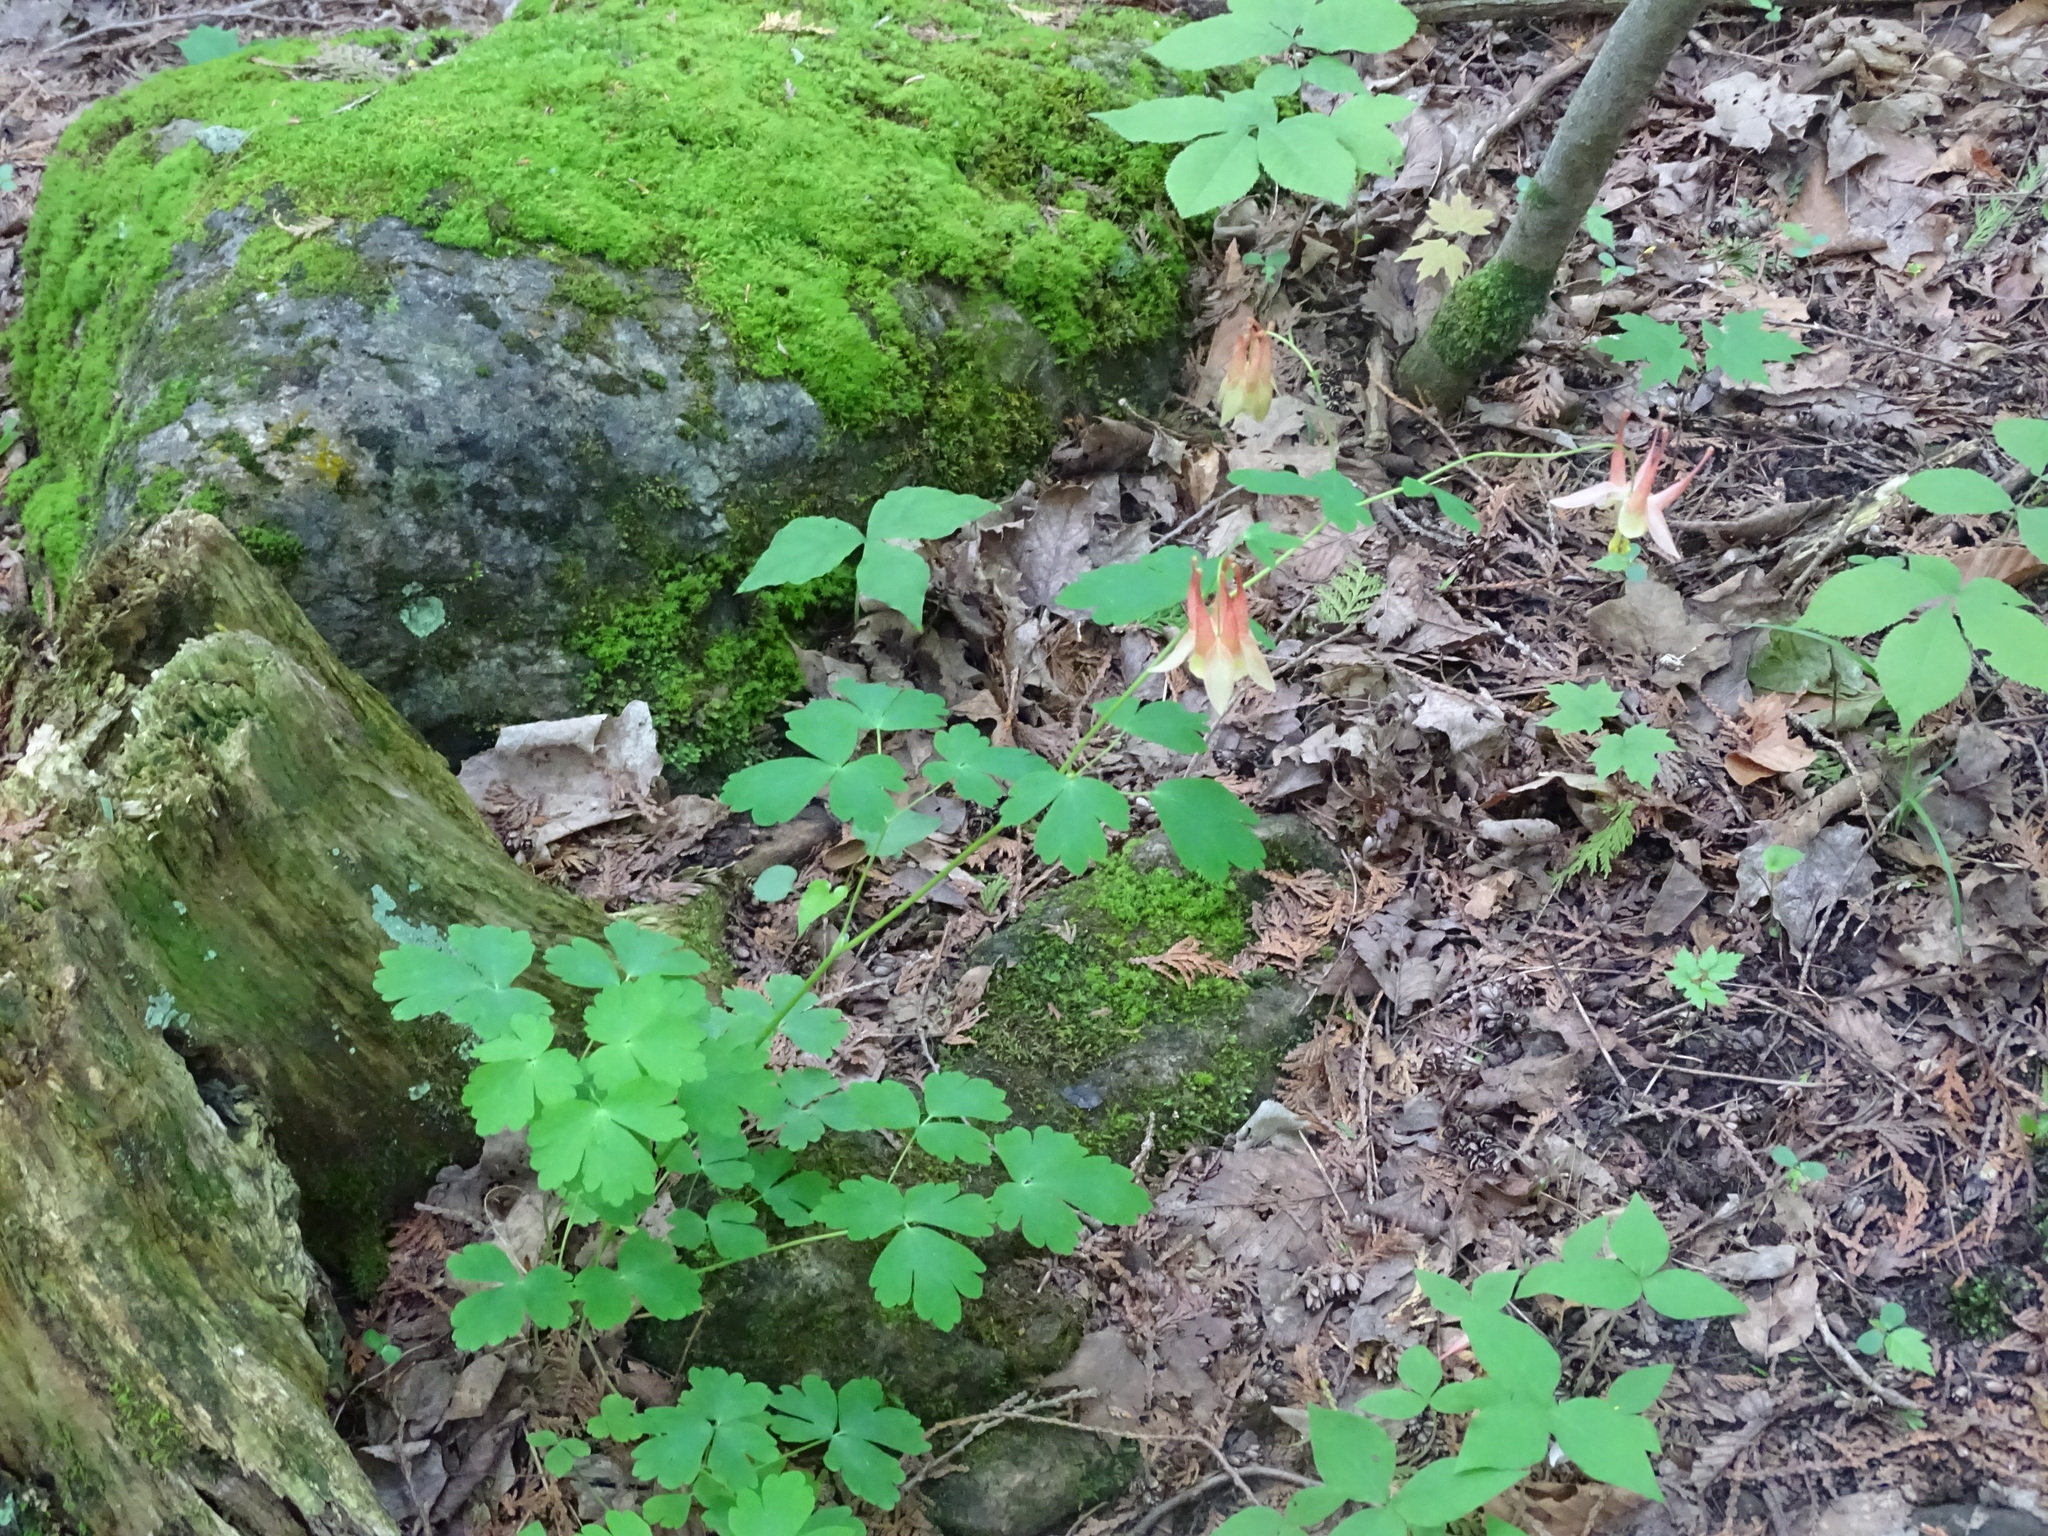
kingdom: Plantae
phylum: Tracheophyta
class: Magnoliopsida
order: Ranunculales
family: Ranunculaceae
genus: Aquilegia
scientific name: Aquilegia canadensis
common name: American columbine
